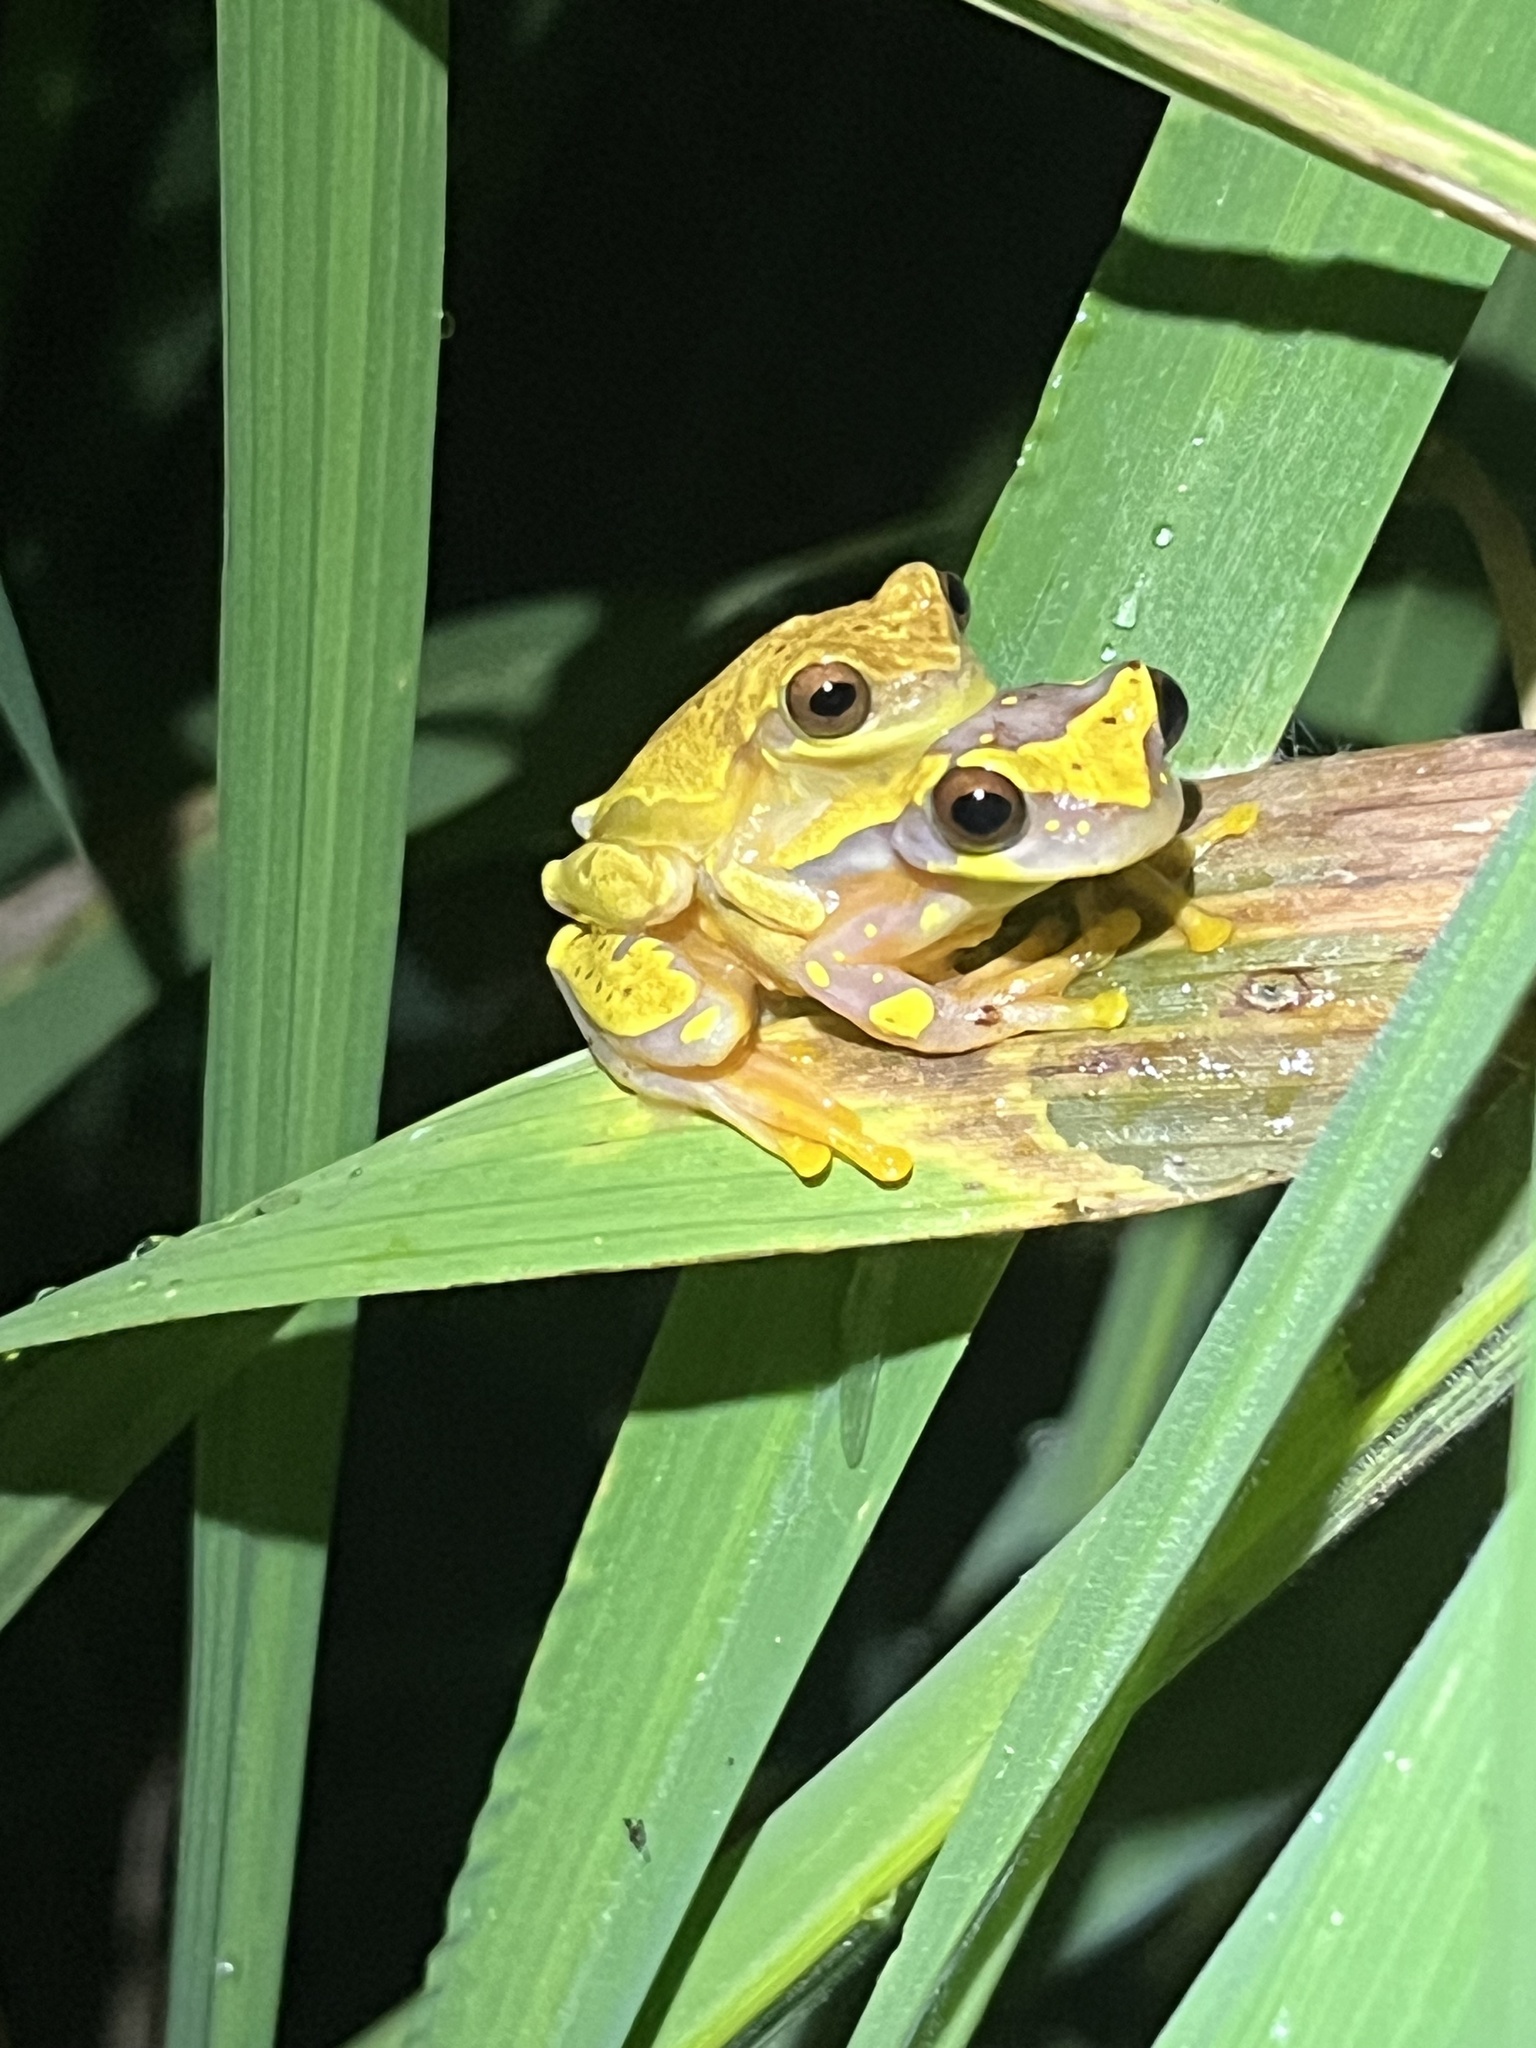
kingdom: Animalia
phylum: Chordata
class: Amphibia
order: Anura
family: Hylidae
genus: Dendropsophus
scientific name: Dendropsophus ebraccatus
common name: Hourglass treefrog
